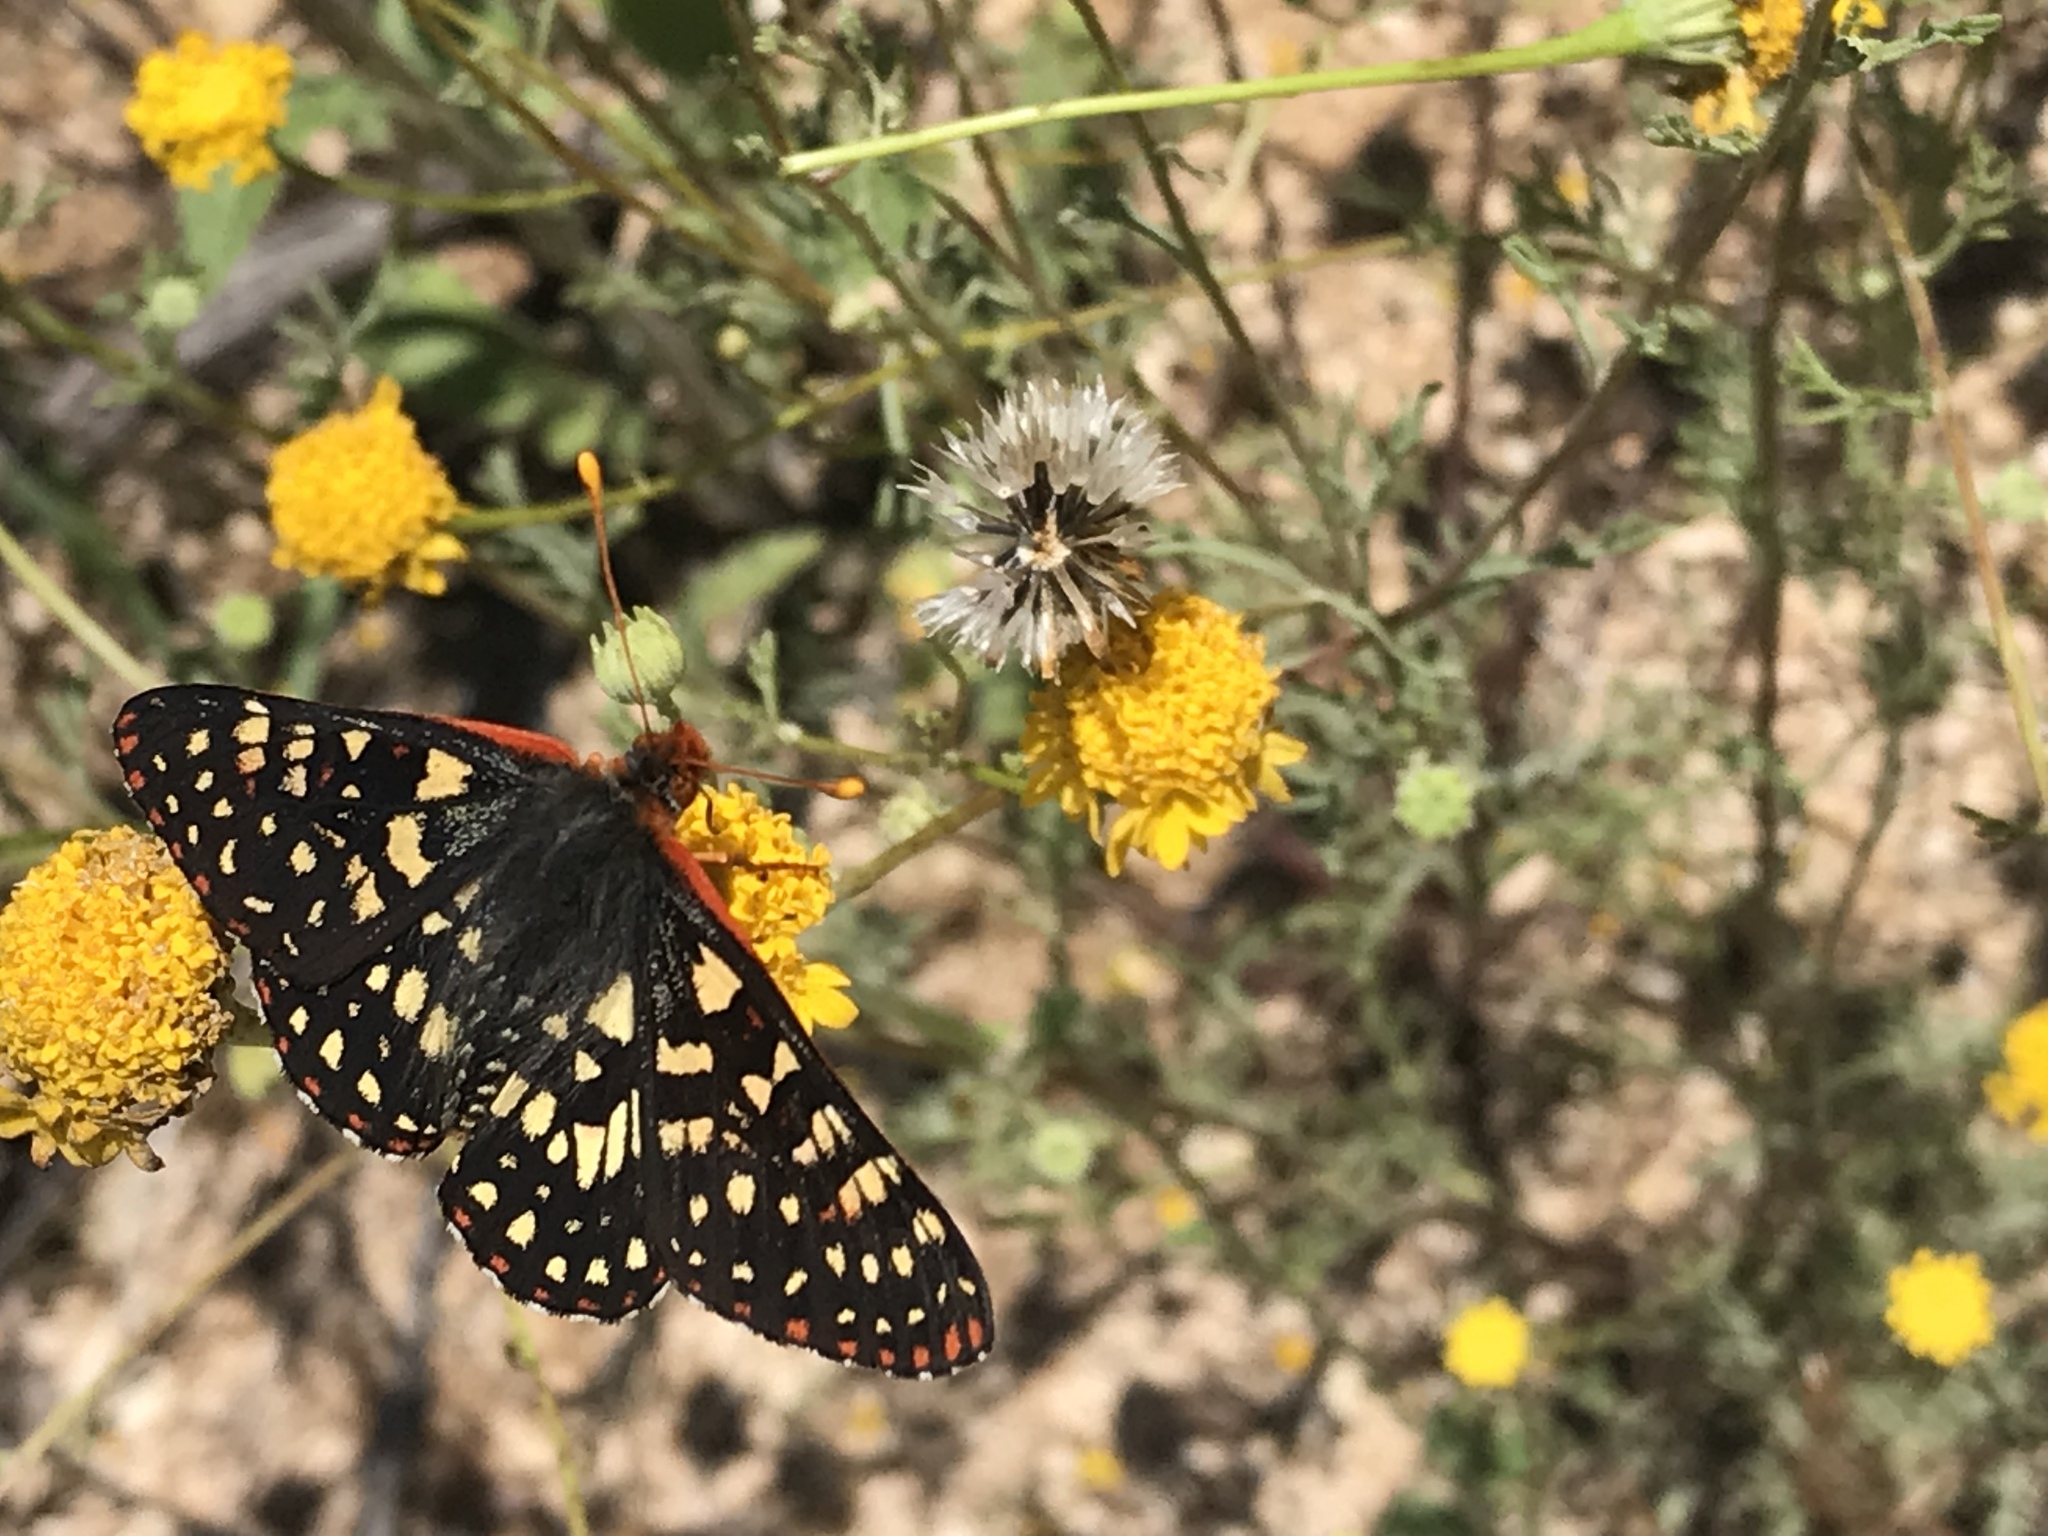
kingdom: Animalia
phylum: Arthropoda
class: Insecta
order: Lepidoptera
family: Nymphalidae
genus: Occidryas
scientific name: Occidryas chalcedona
